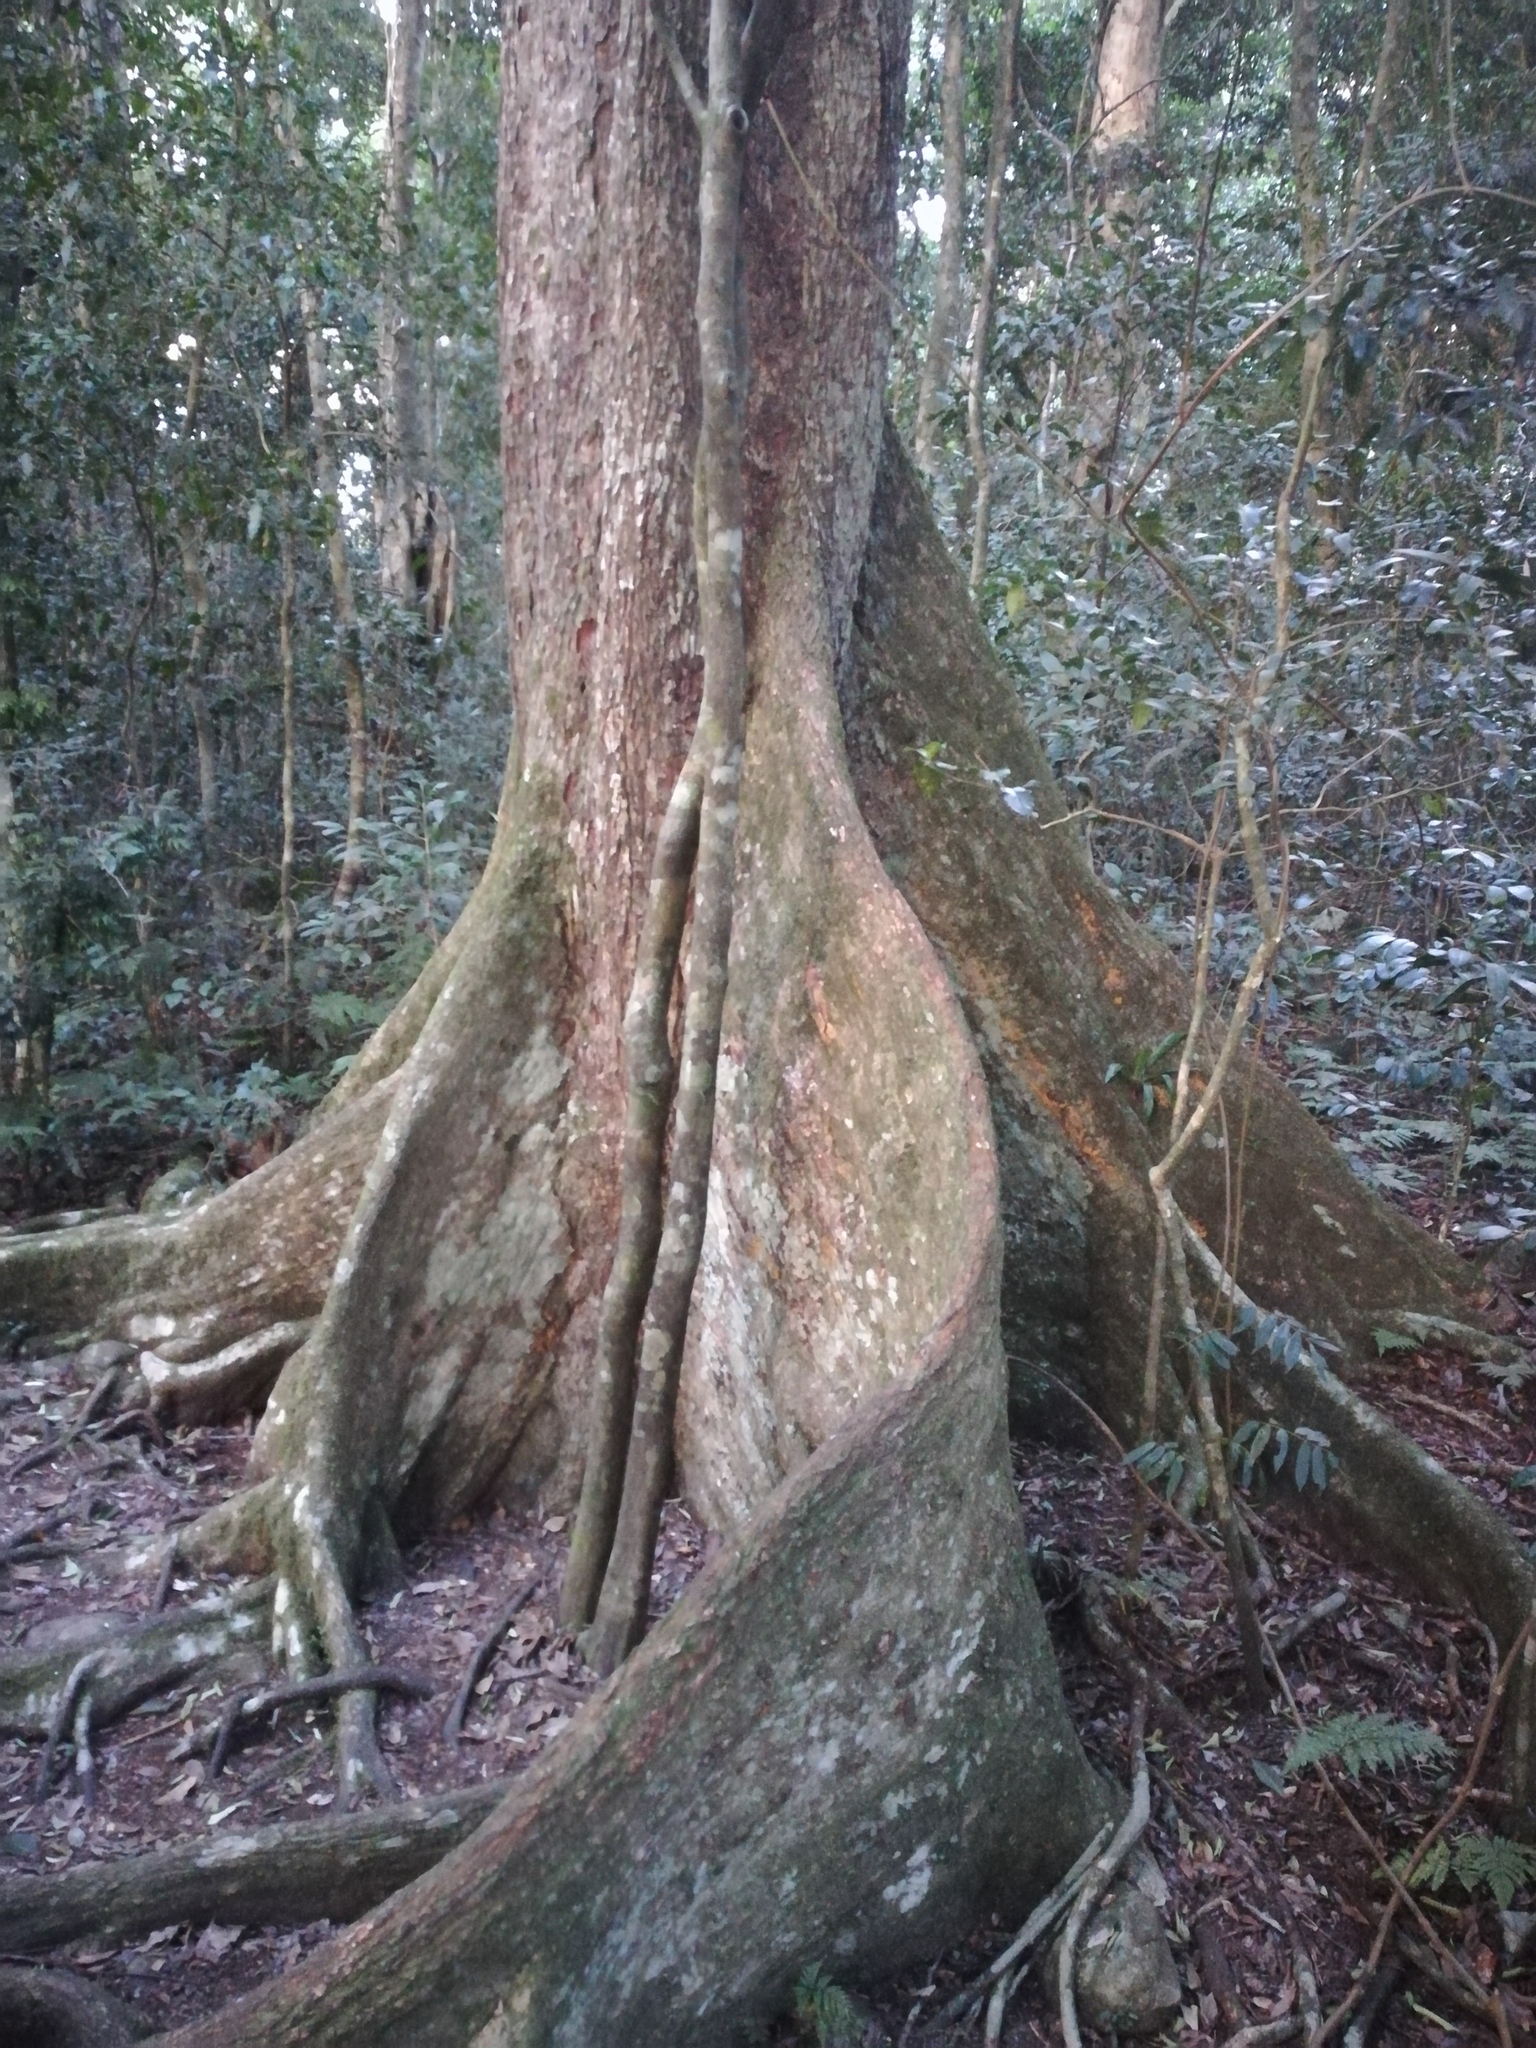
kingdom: Plantae
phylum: Tracheophyta
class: Magnoliopsida
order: Malvales
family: Malvaceae
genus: Argyrodendron
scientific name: Argyrodendron actinophyllum
